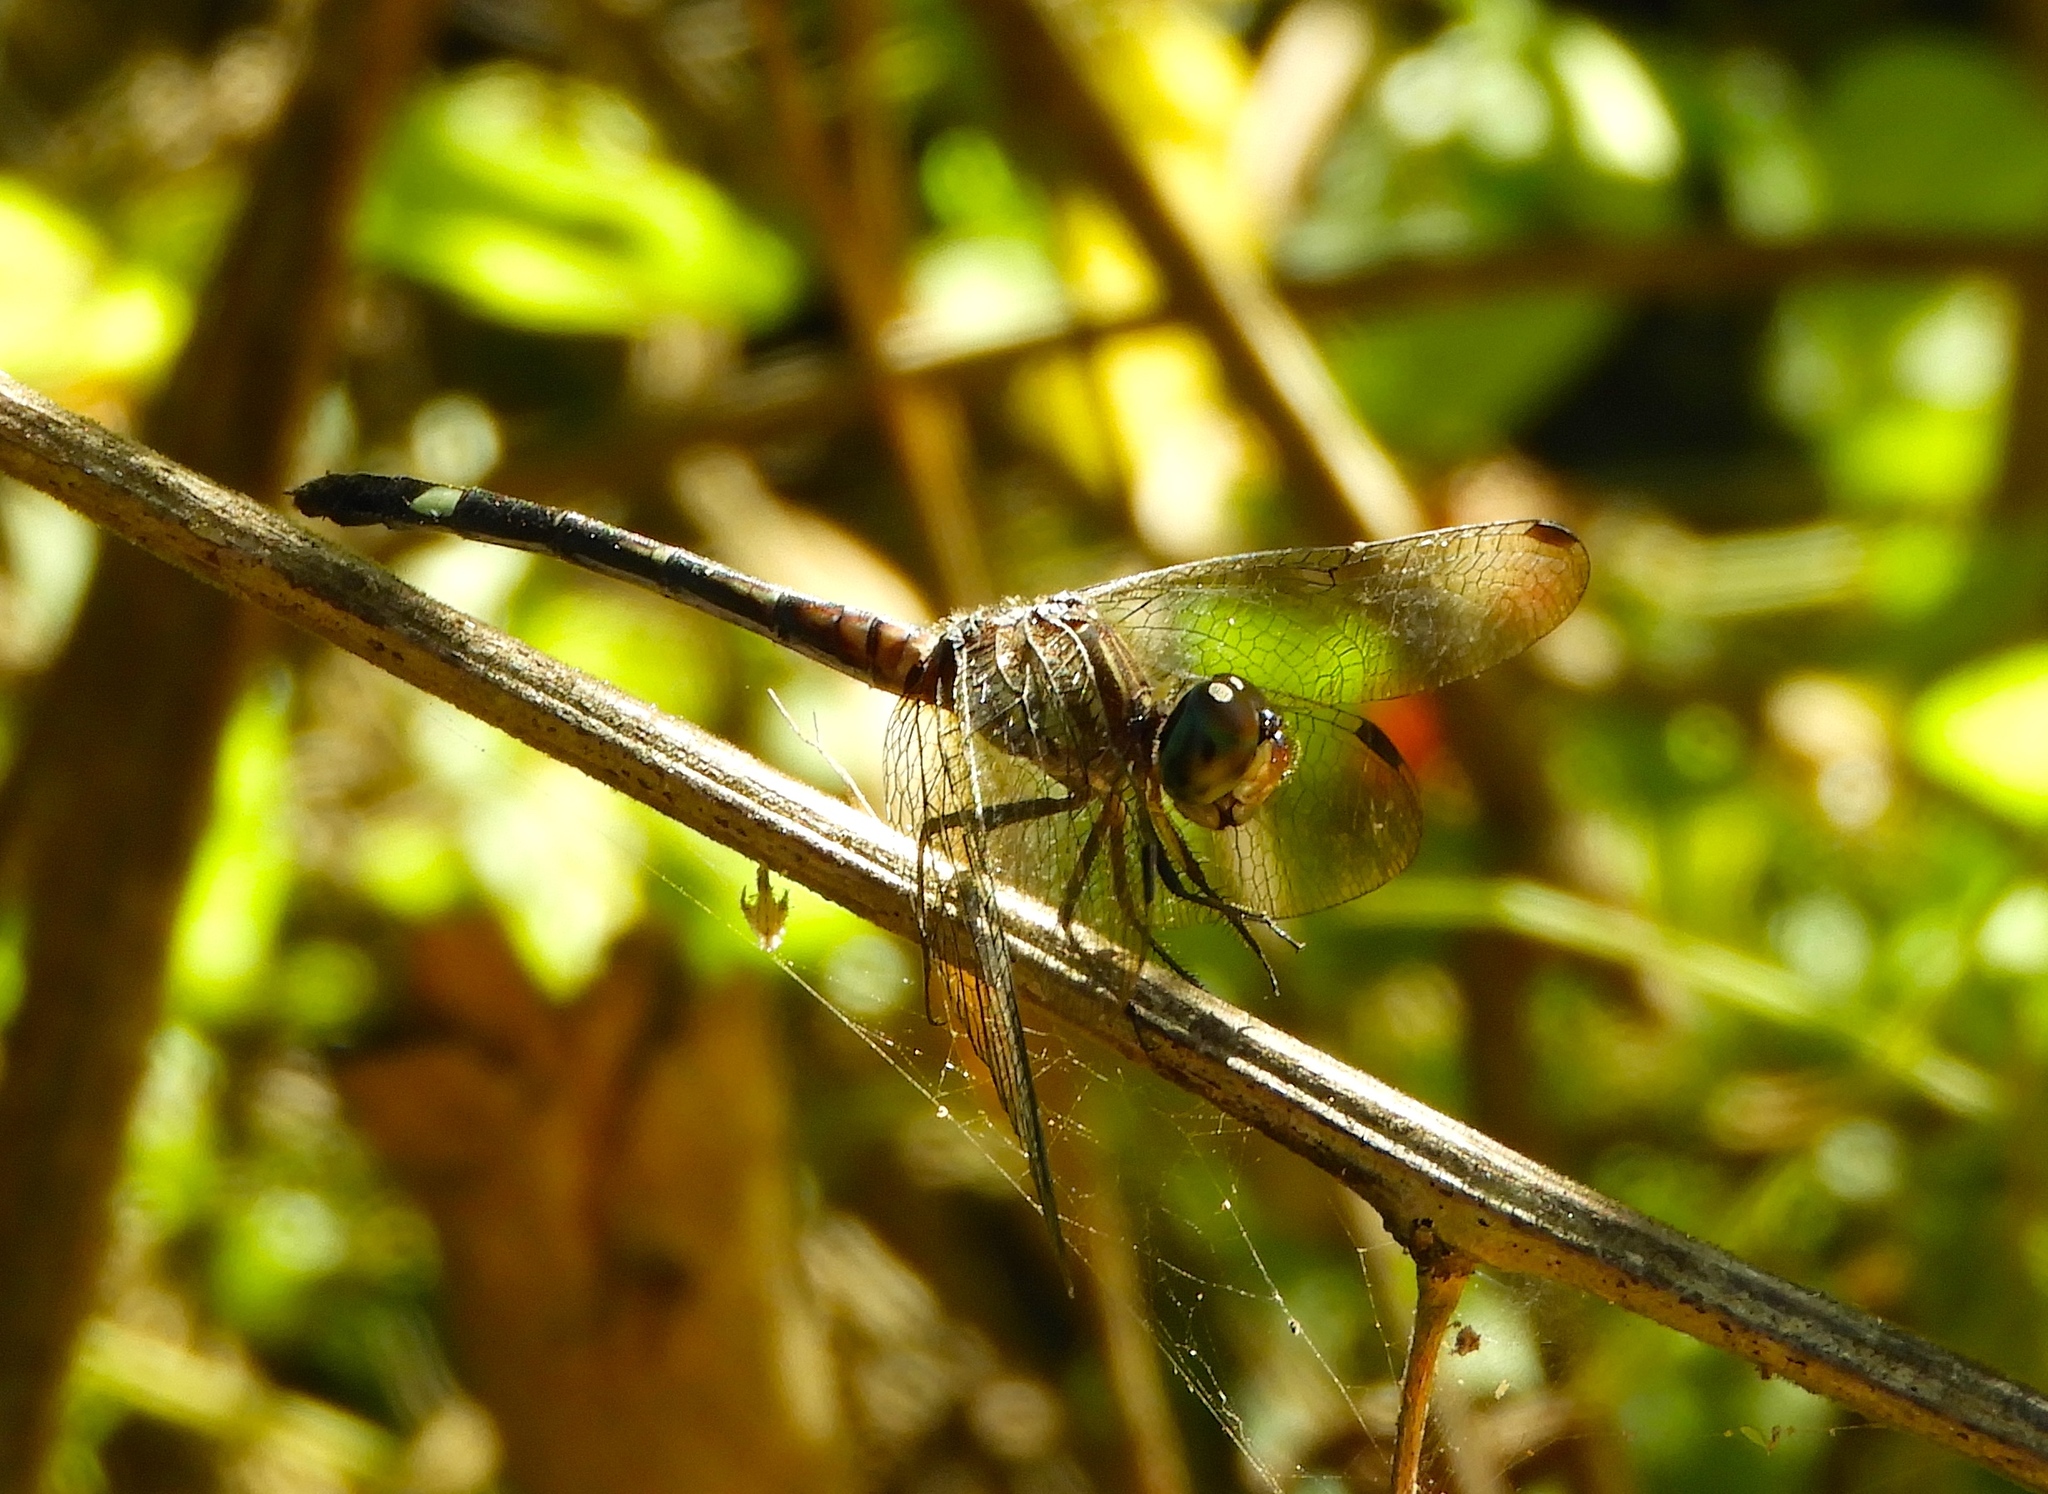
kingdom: Animalia
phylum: Arthropoda
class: Insecta
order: Odonata
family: Libellulidae
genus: Micrathyria
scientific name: Micrathyria
